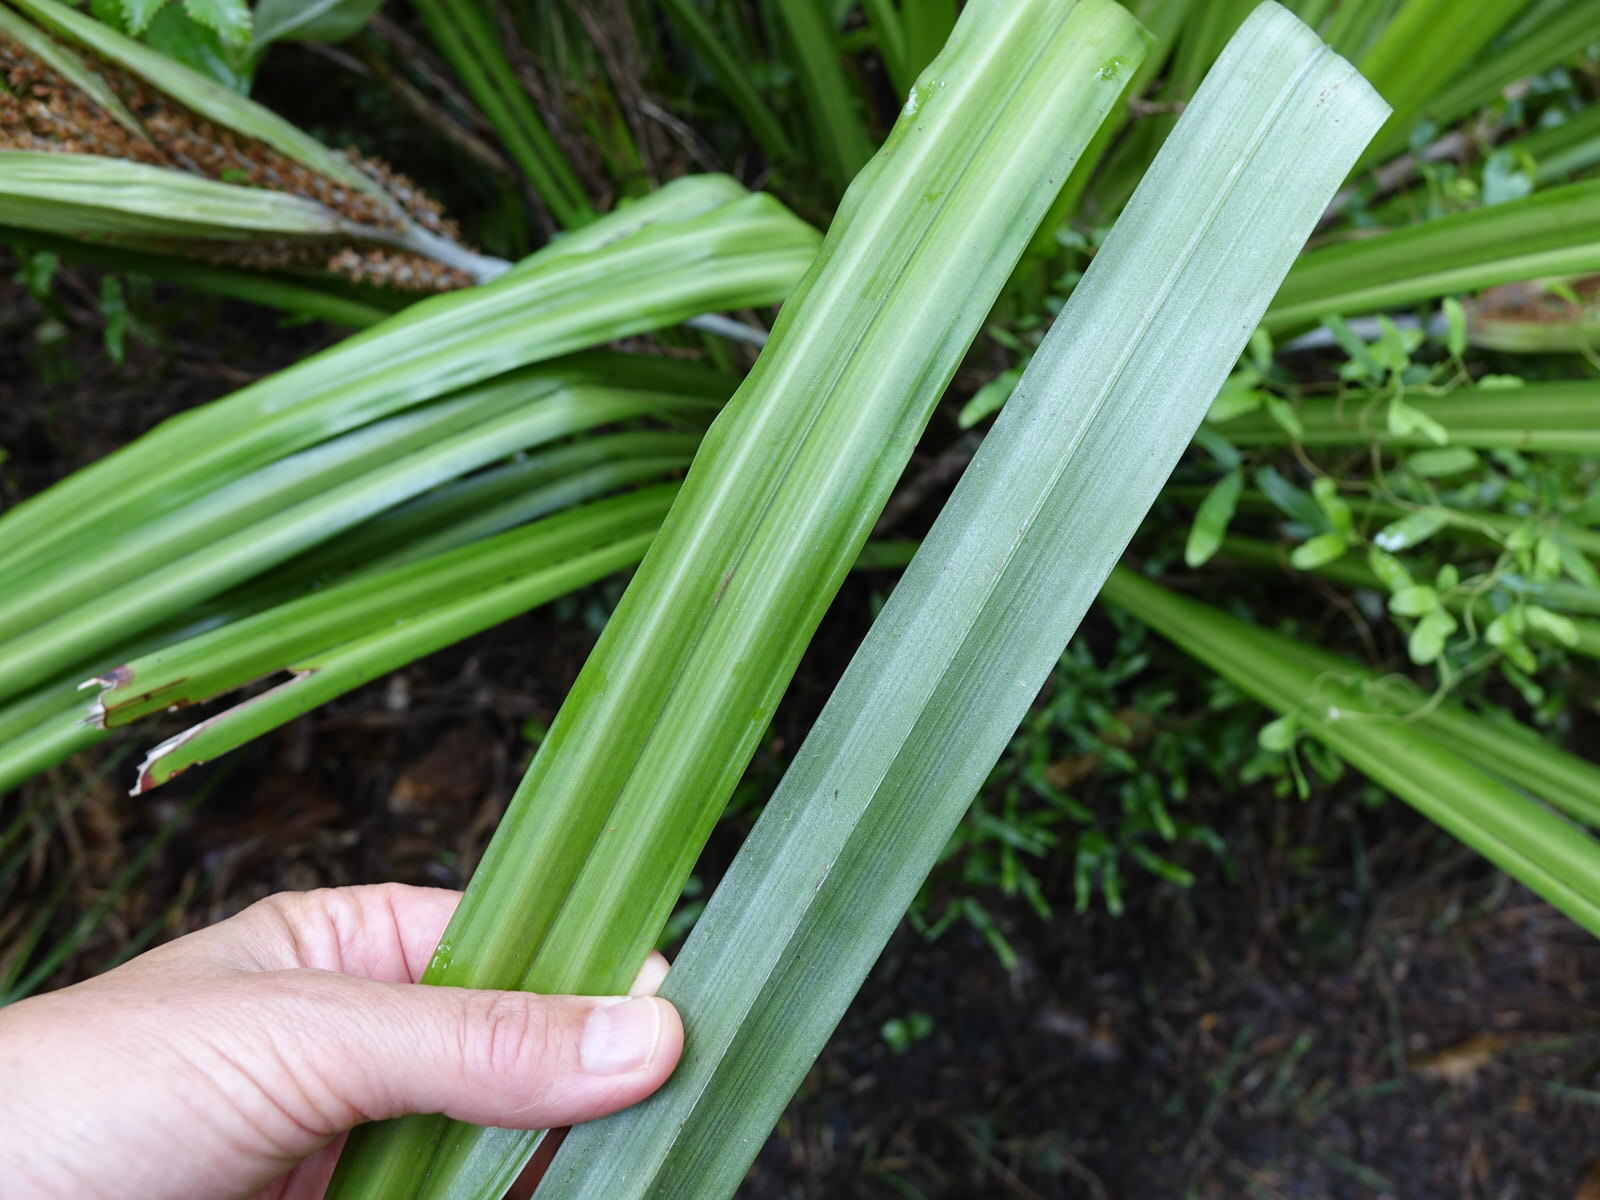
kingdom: Plantae
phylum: Tracheophyta
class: Liliopsida
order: Asparagales
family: Asteliaceae
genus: Astelia
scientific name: Astelia trinervia
